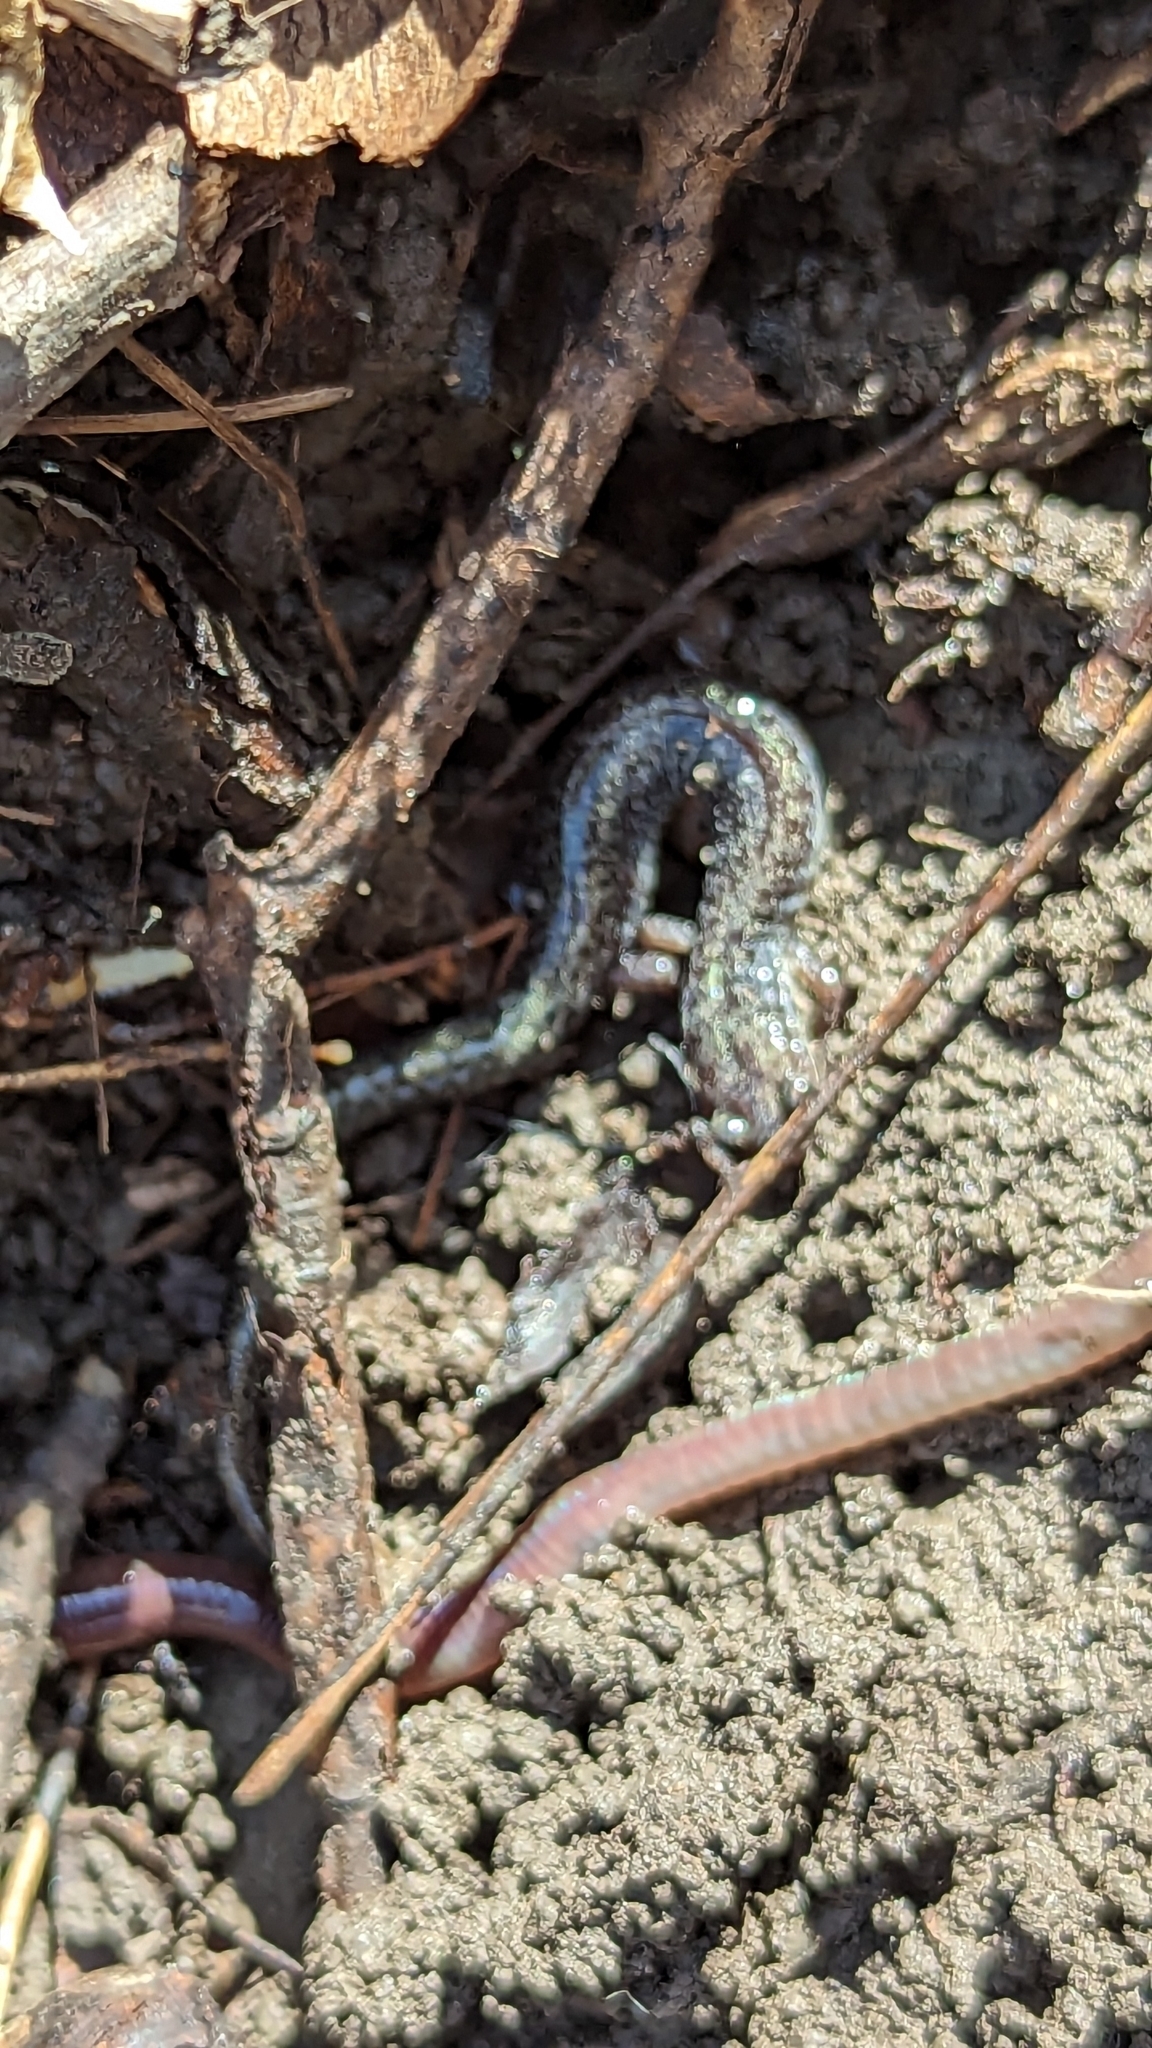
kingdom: Animalia
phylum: Chordata
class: Amphibia
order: Caudata
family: Plethodontidae
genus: Plethodon
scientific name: Plethodon cinereus
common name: Redback salamander
